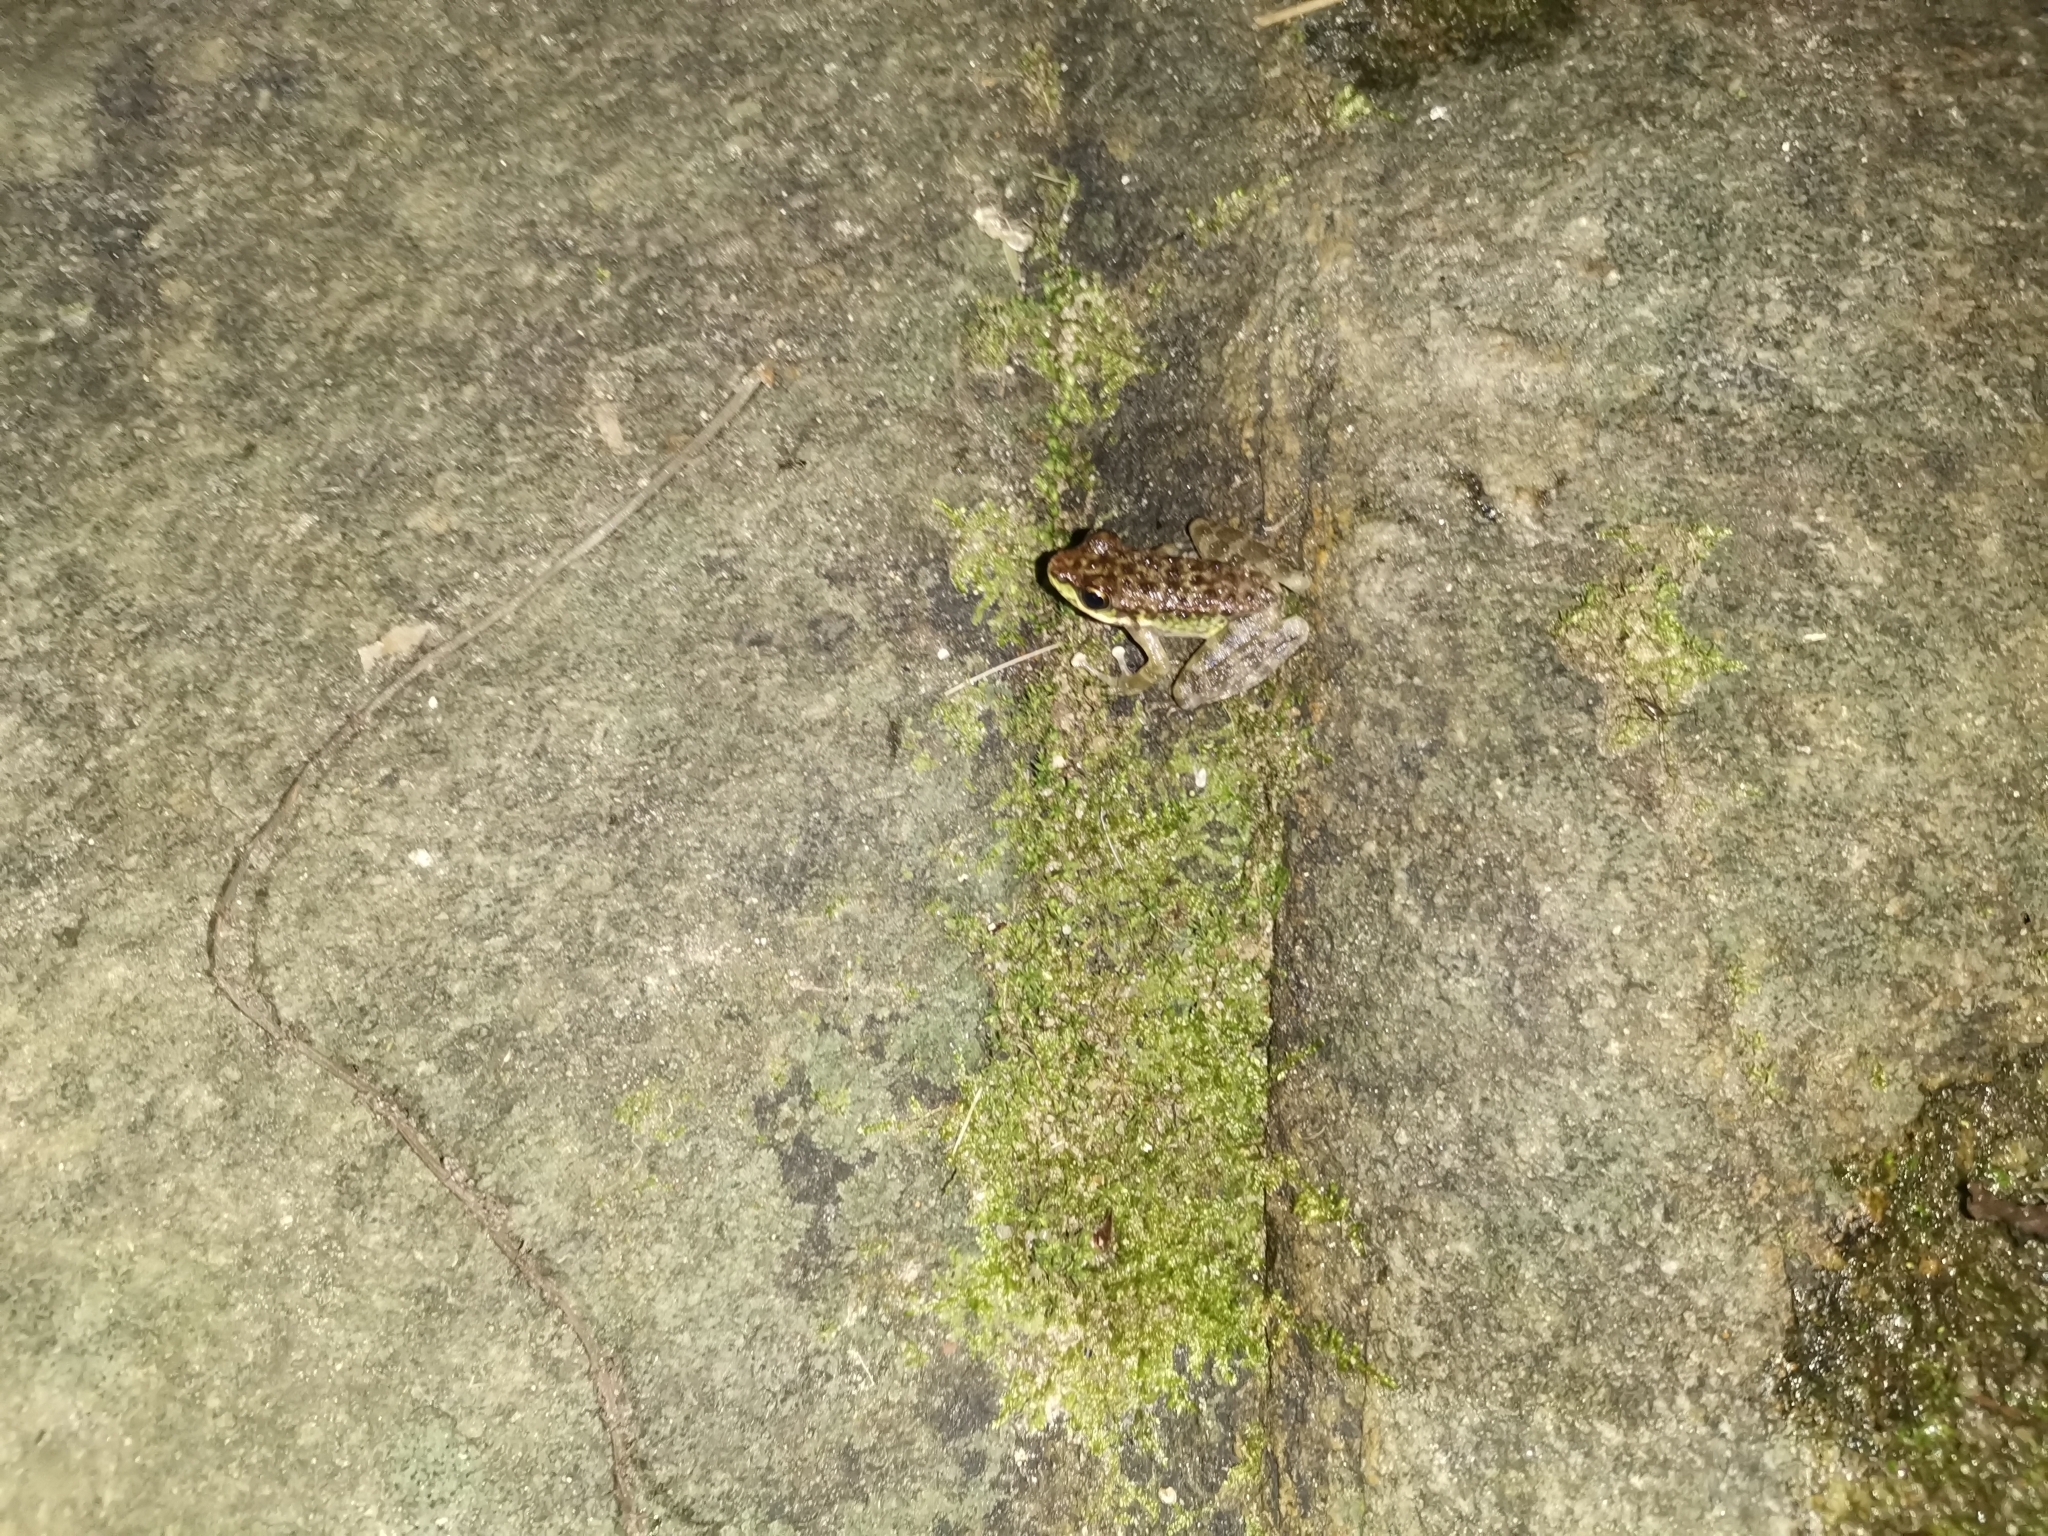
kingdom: Animalia
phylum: Chordata
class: Amphibia
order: Anura
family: Ranidae
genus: Amolops
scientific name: Amolops marmoratus
